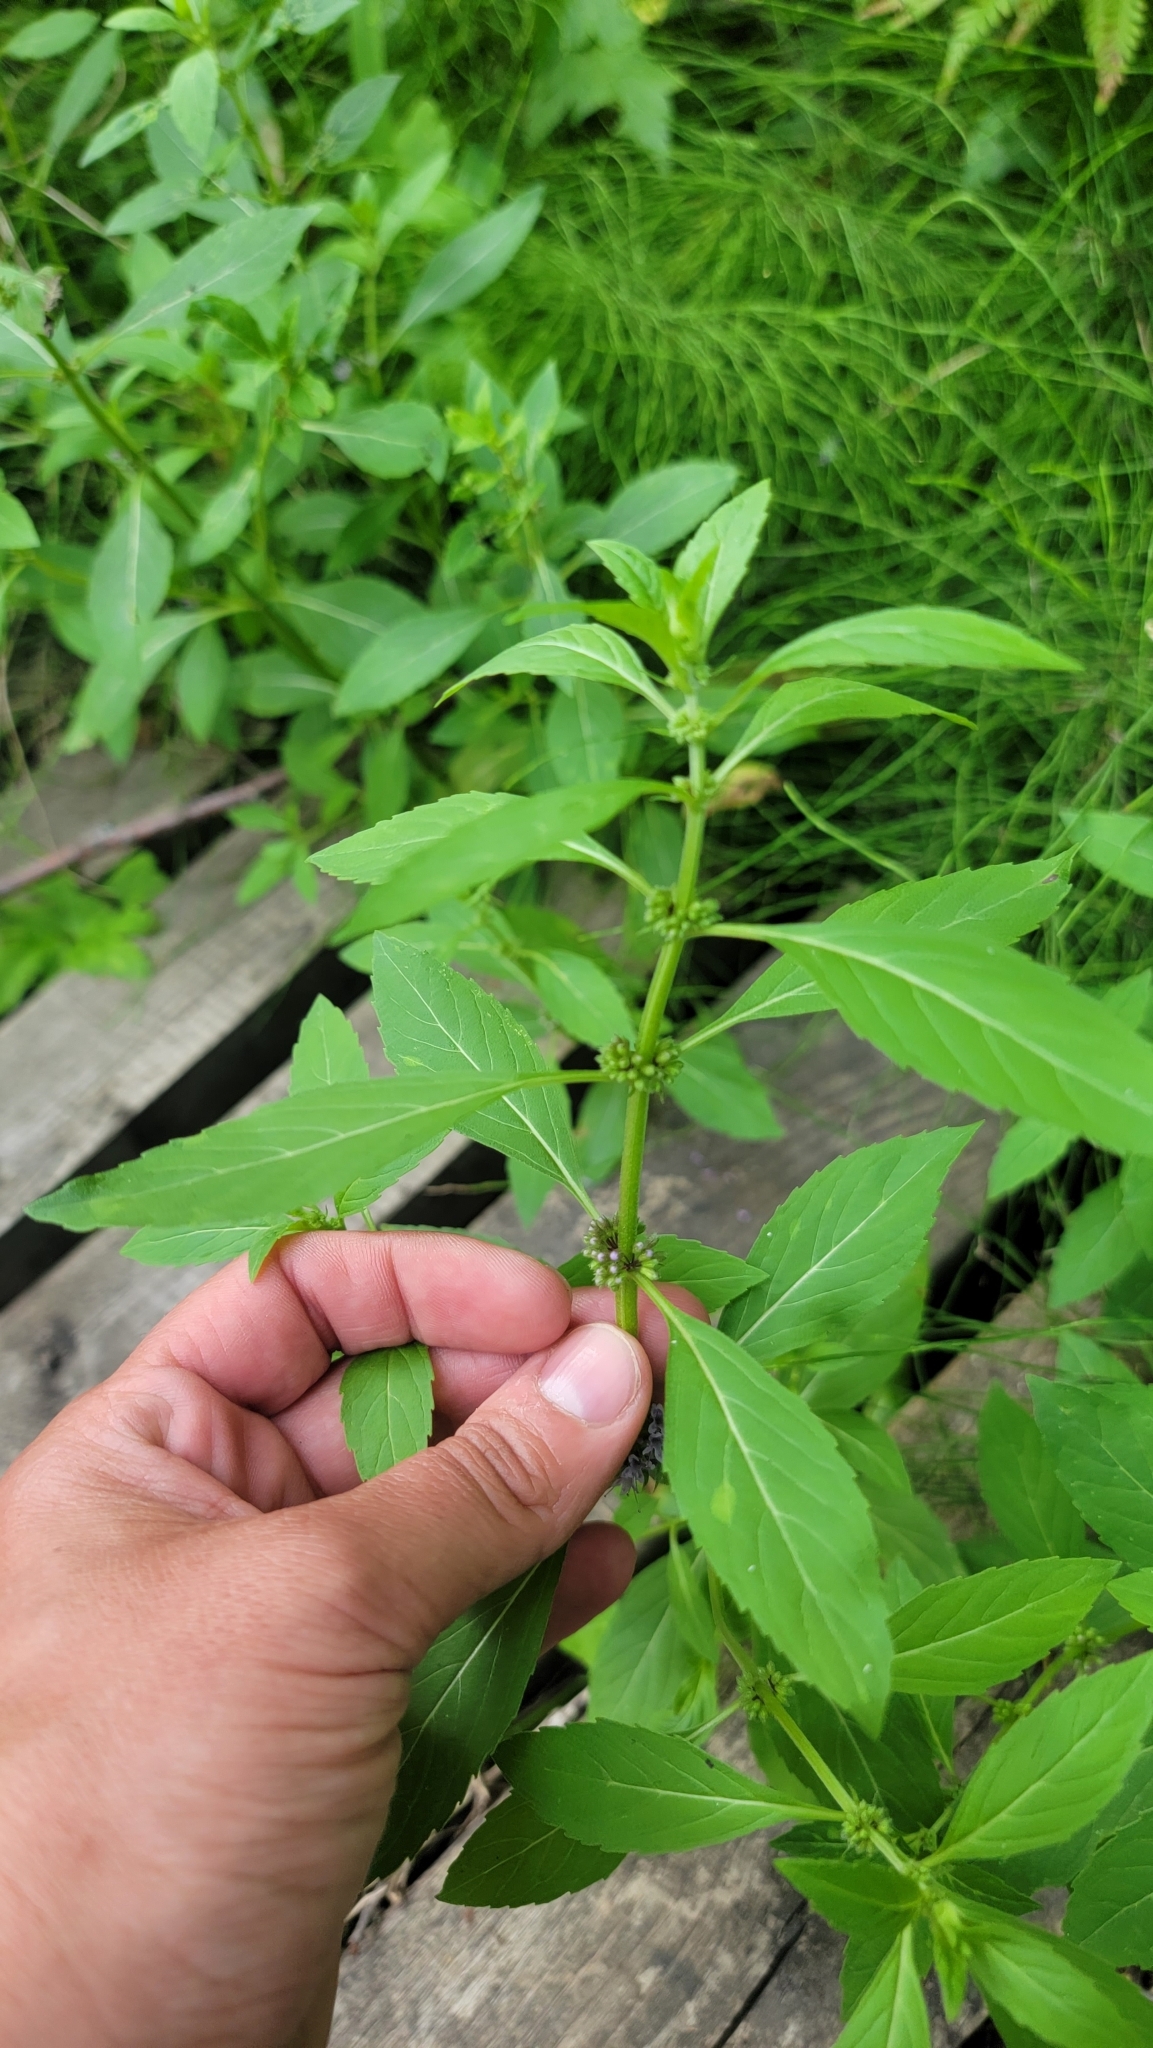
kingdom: Plantae
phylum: Tracheophyta
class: Magnoliopsida
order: Lamiales
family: Lamiaceae
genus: Mentha
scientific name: Mentha canadensis
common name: American corn mint
